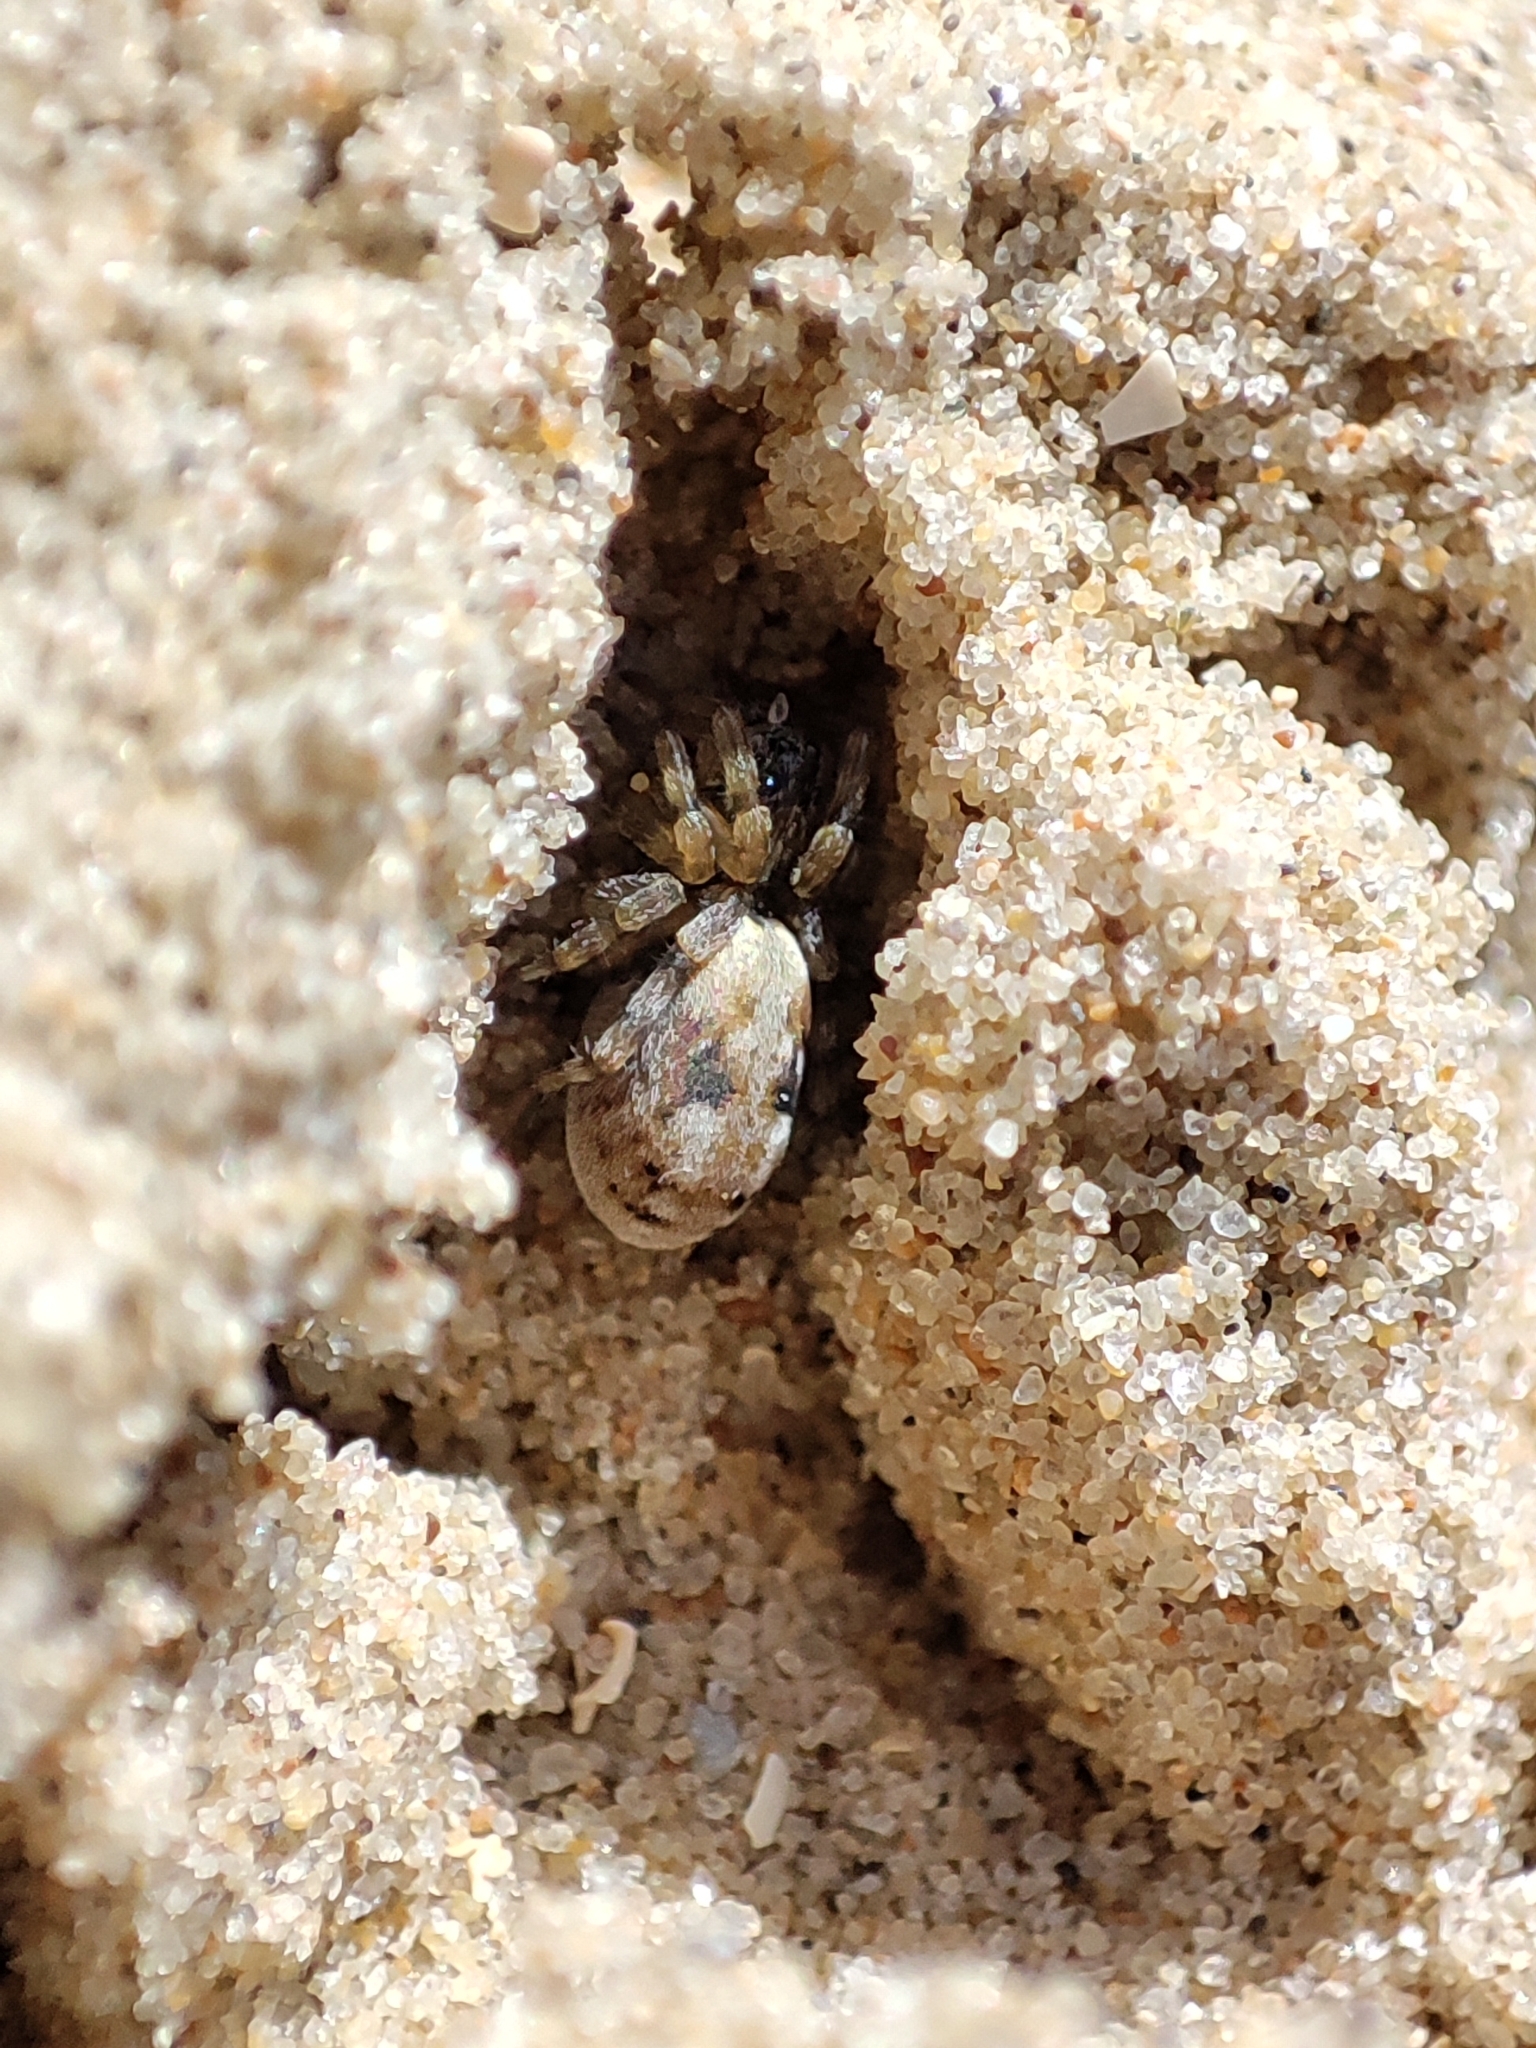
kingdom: Animalia
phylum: Arthropoda
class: Arachnida
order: Araneae
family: Lycosidae
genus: Arctosa
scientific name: Arctosa perita
